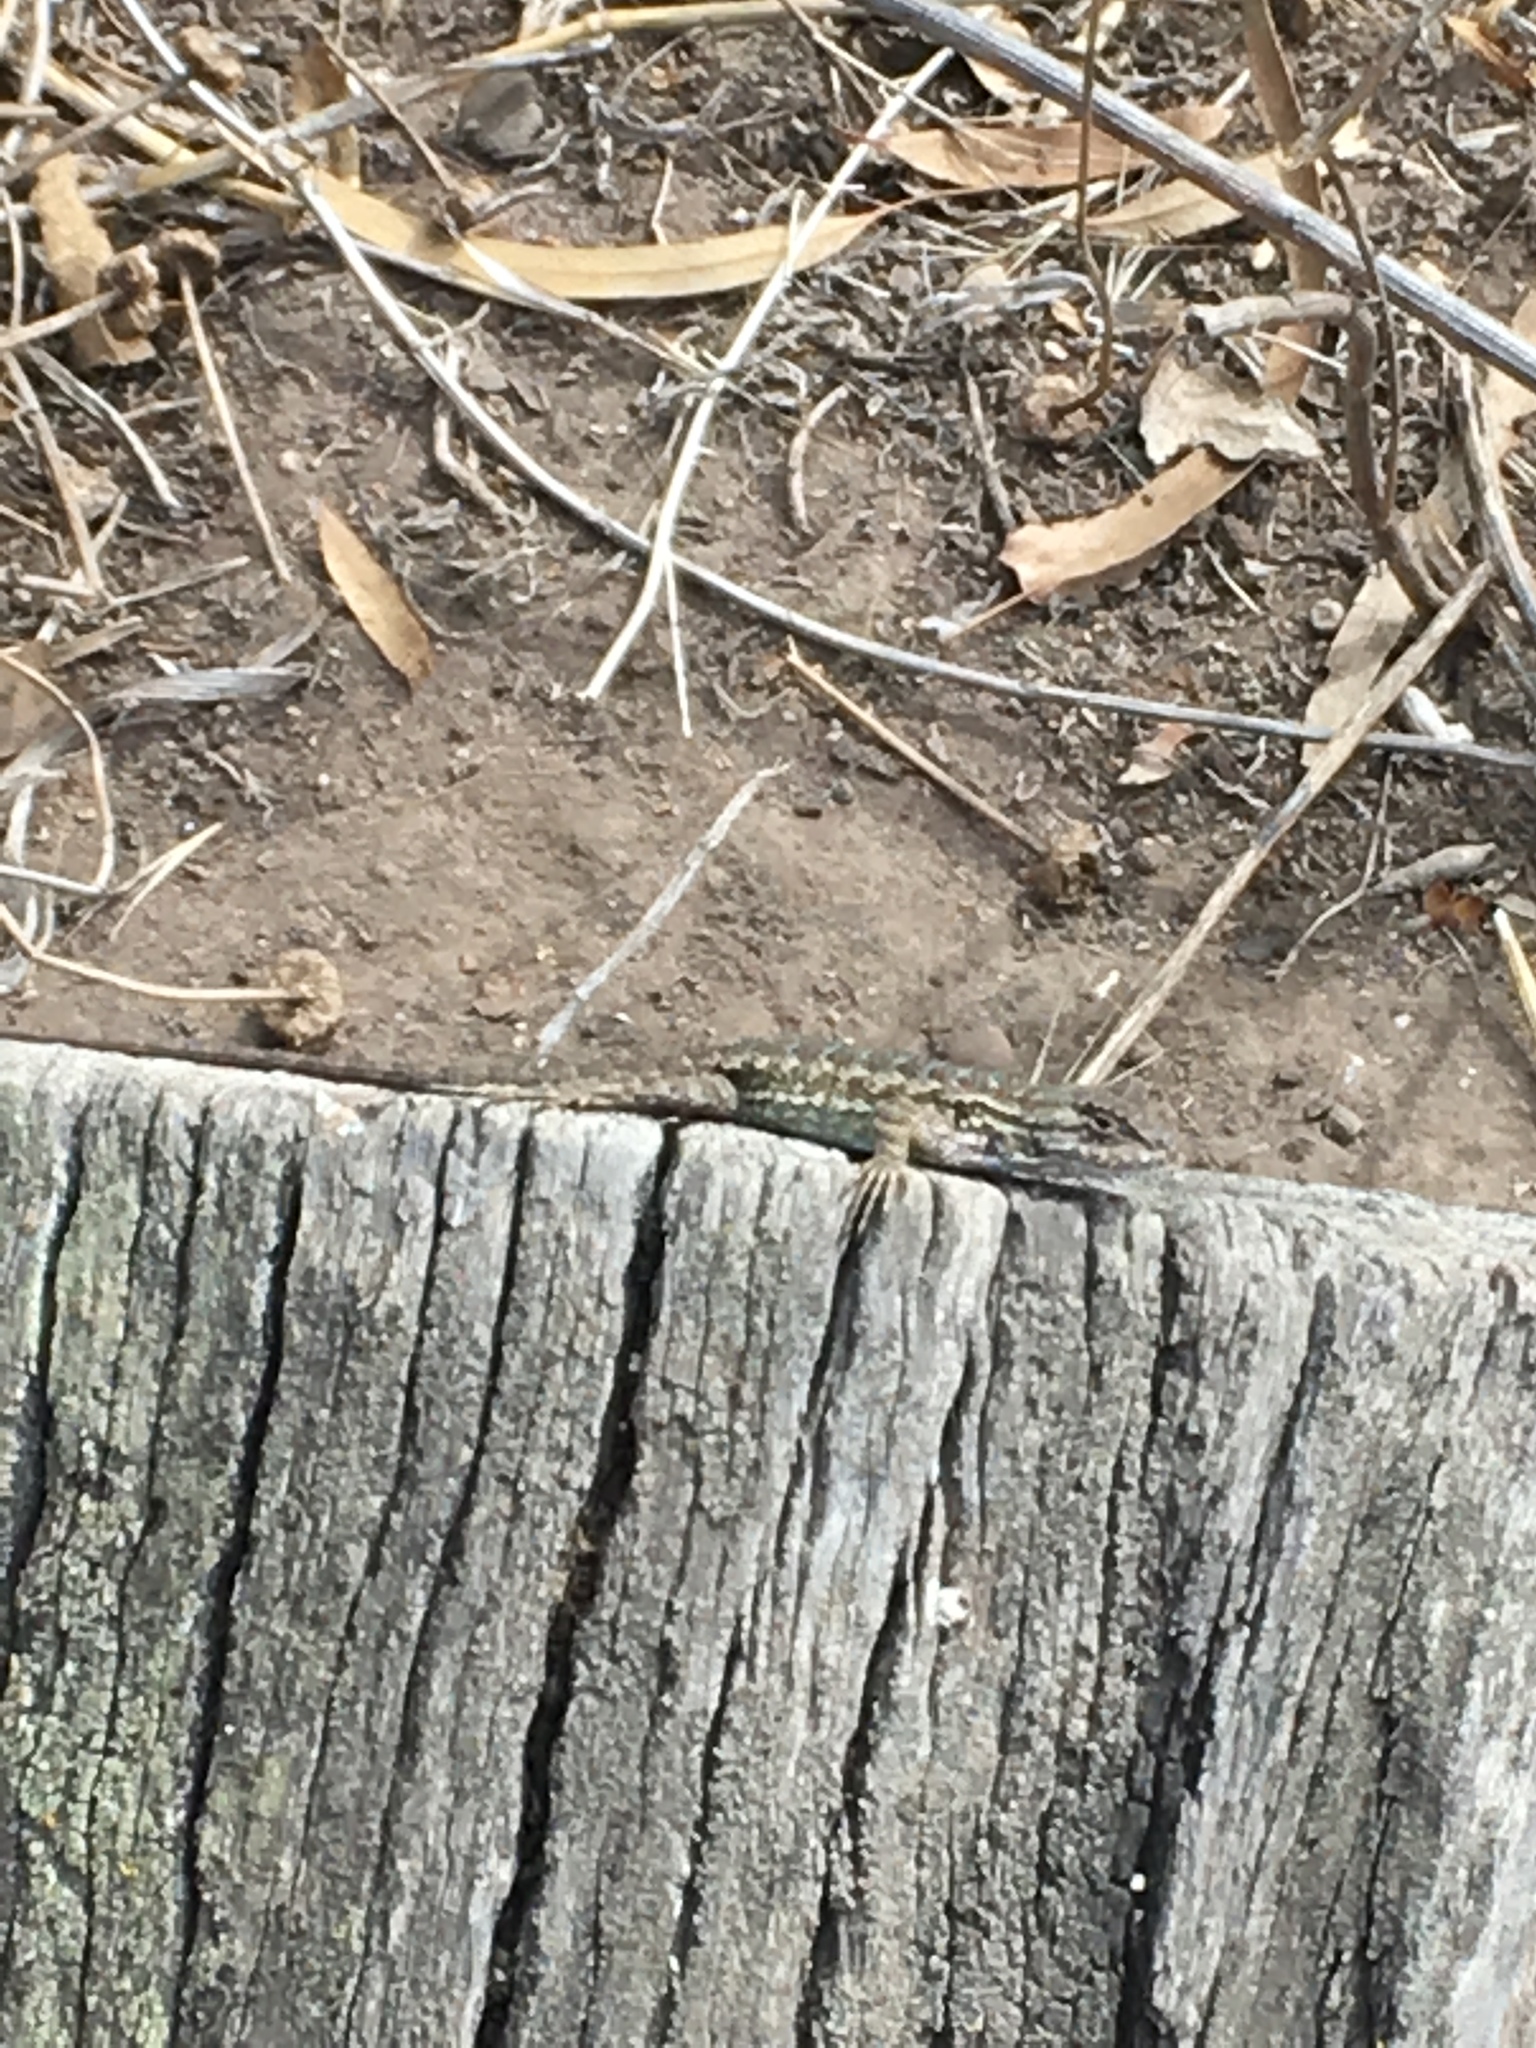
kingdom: Animalia
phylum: Chordata
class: Squamata
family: Phrynosomatidae
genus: Sceloporus
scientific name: Sceloporus occidentalis
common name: Western fence lizard
